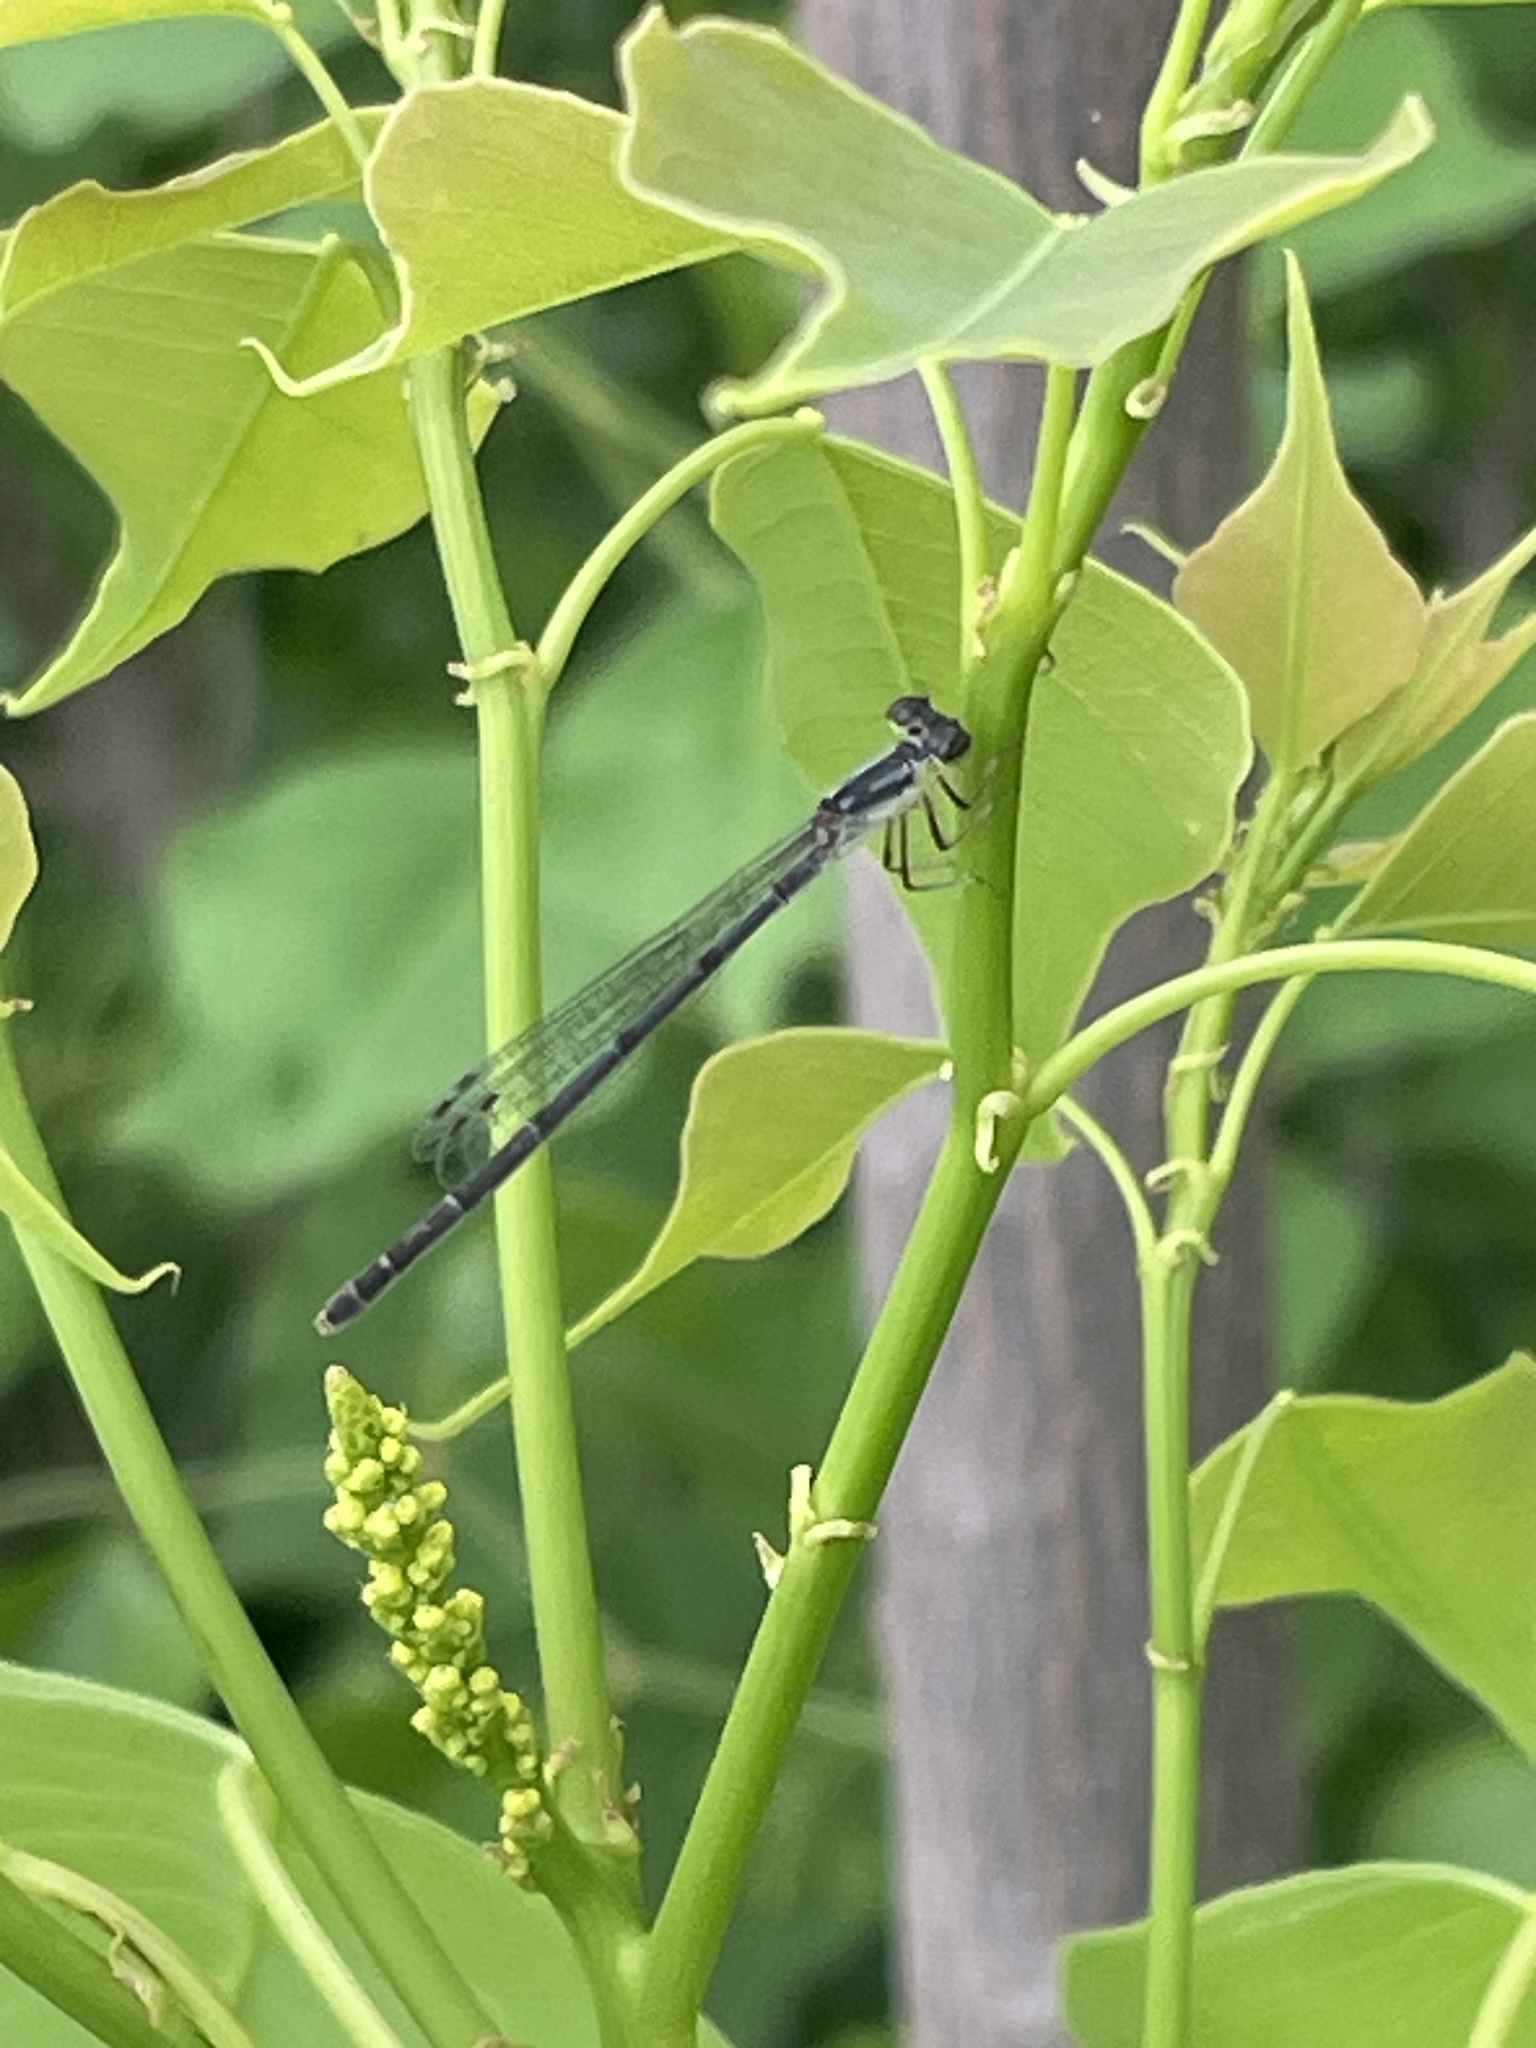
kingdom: Animalia
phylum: Arthropoda
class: Insecta
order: Odonata
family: Coenagrionidae
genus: Ischnura
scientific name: Ischnura posita
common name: Fragile forktail
